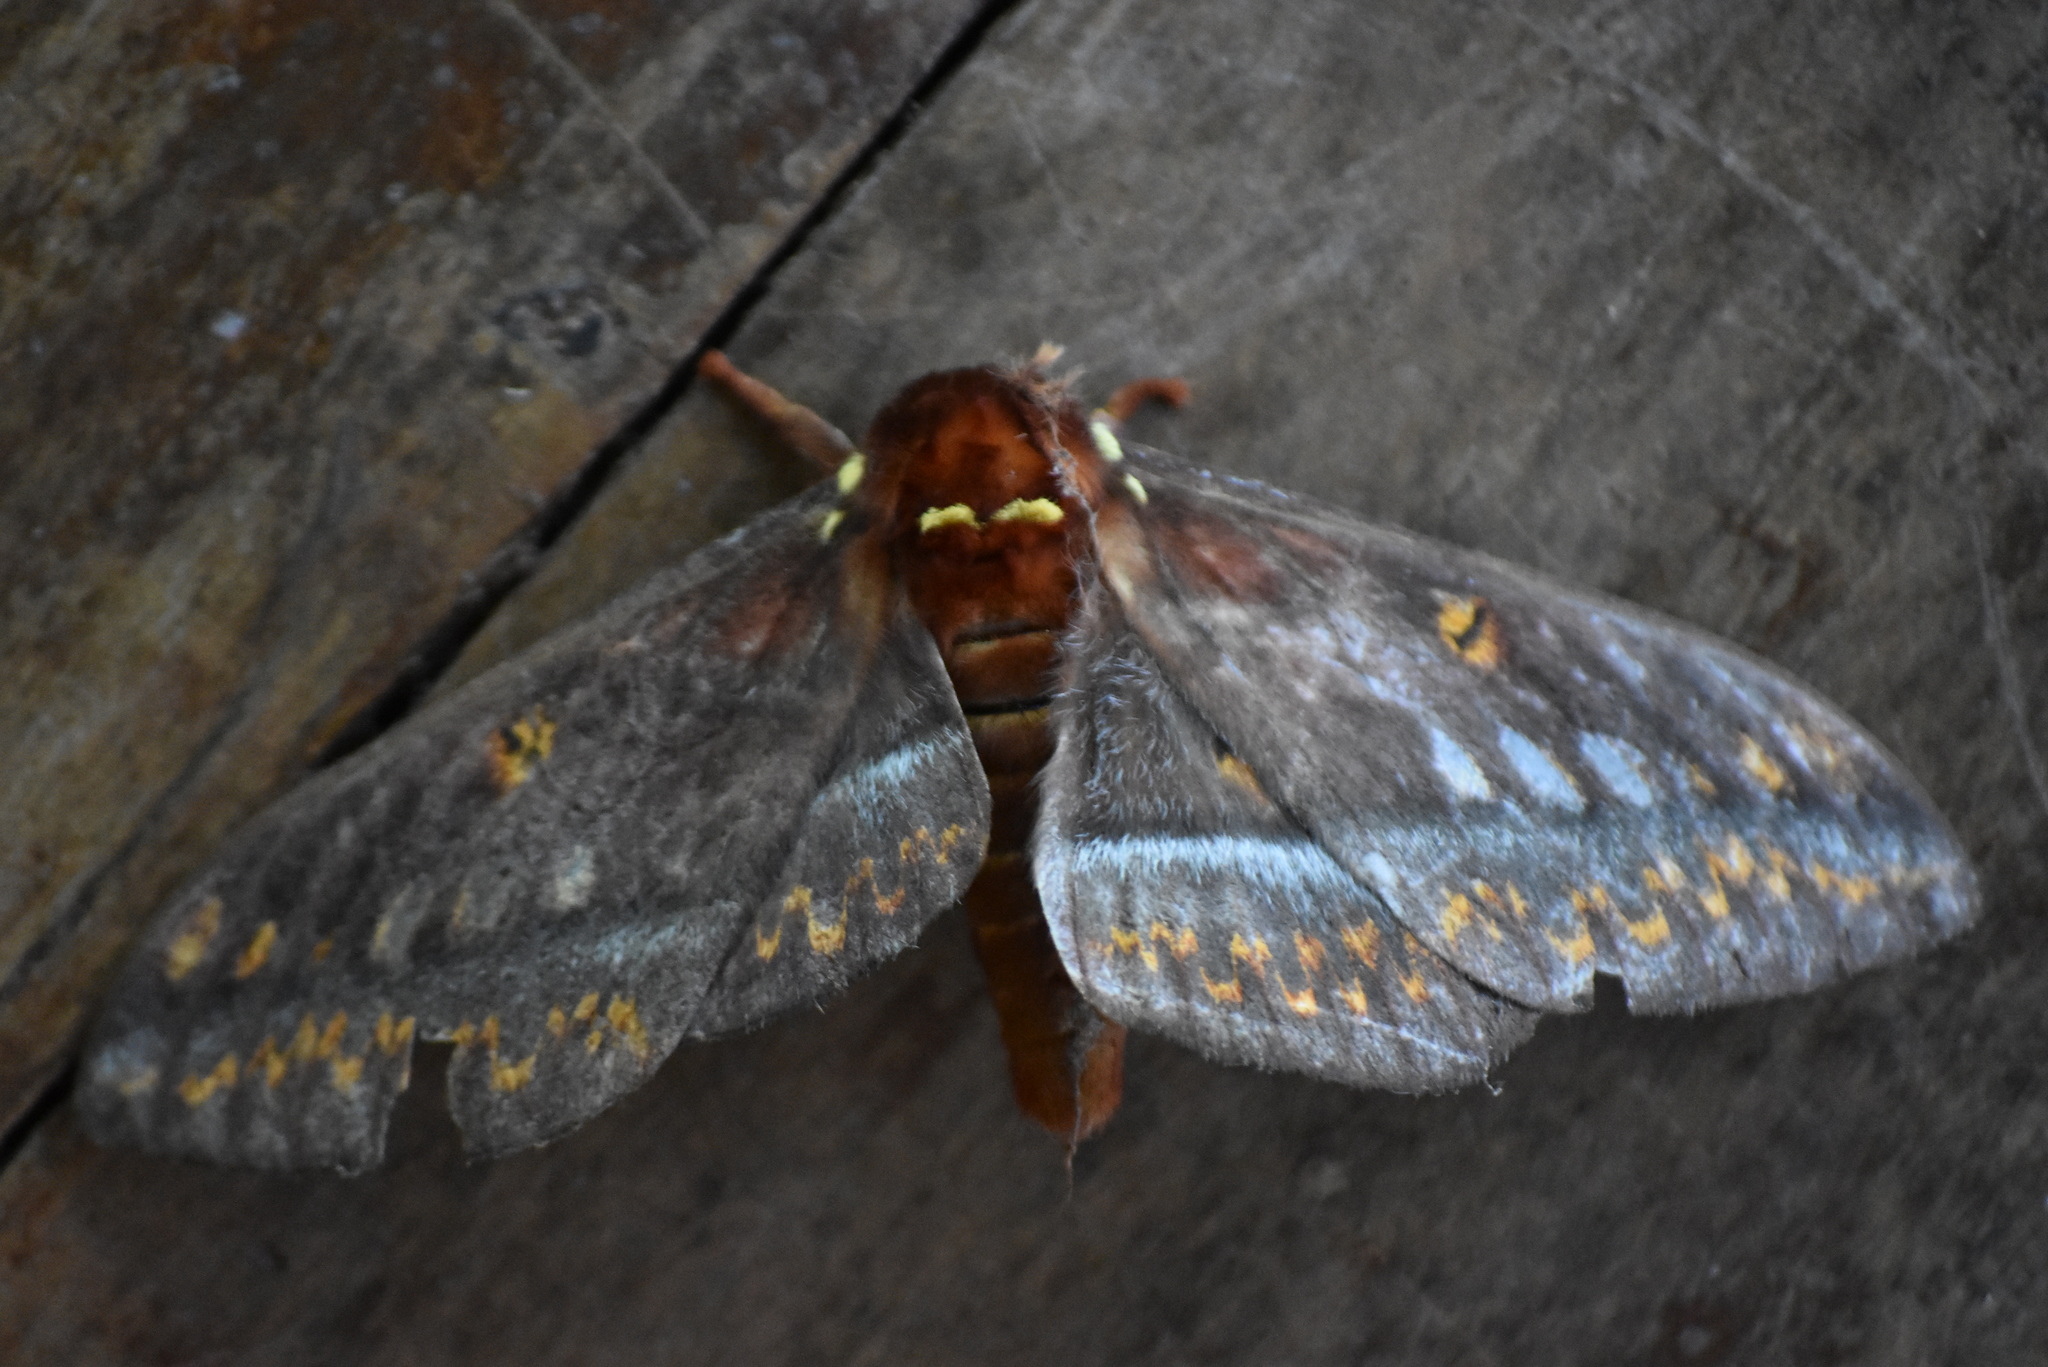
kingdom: Animalia
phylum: Arthropoda
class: Insecta
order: Lepidoptera
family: Saturniidae
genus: Procitheronia
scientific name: Procitheronia purpurea
